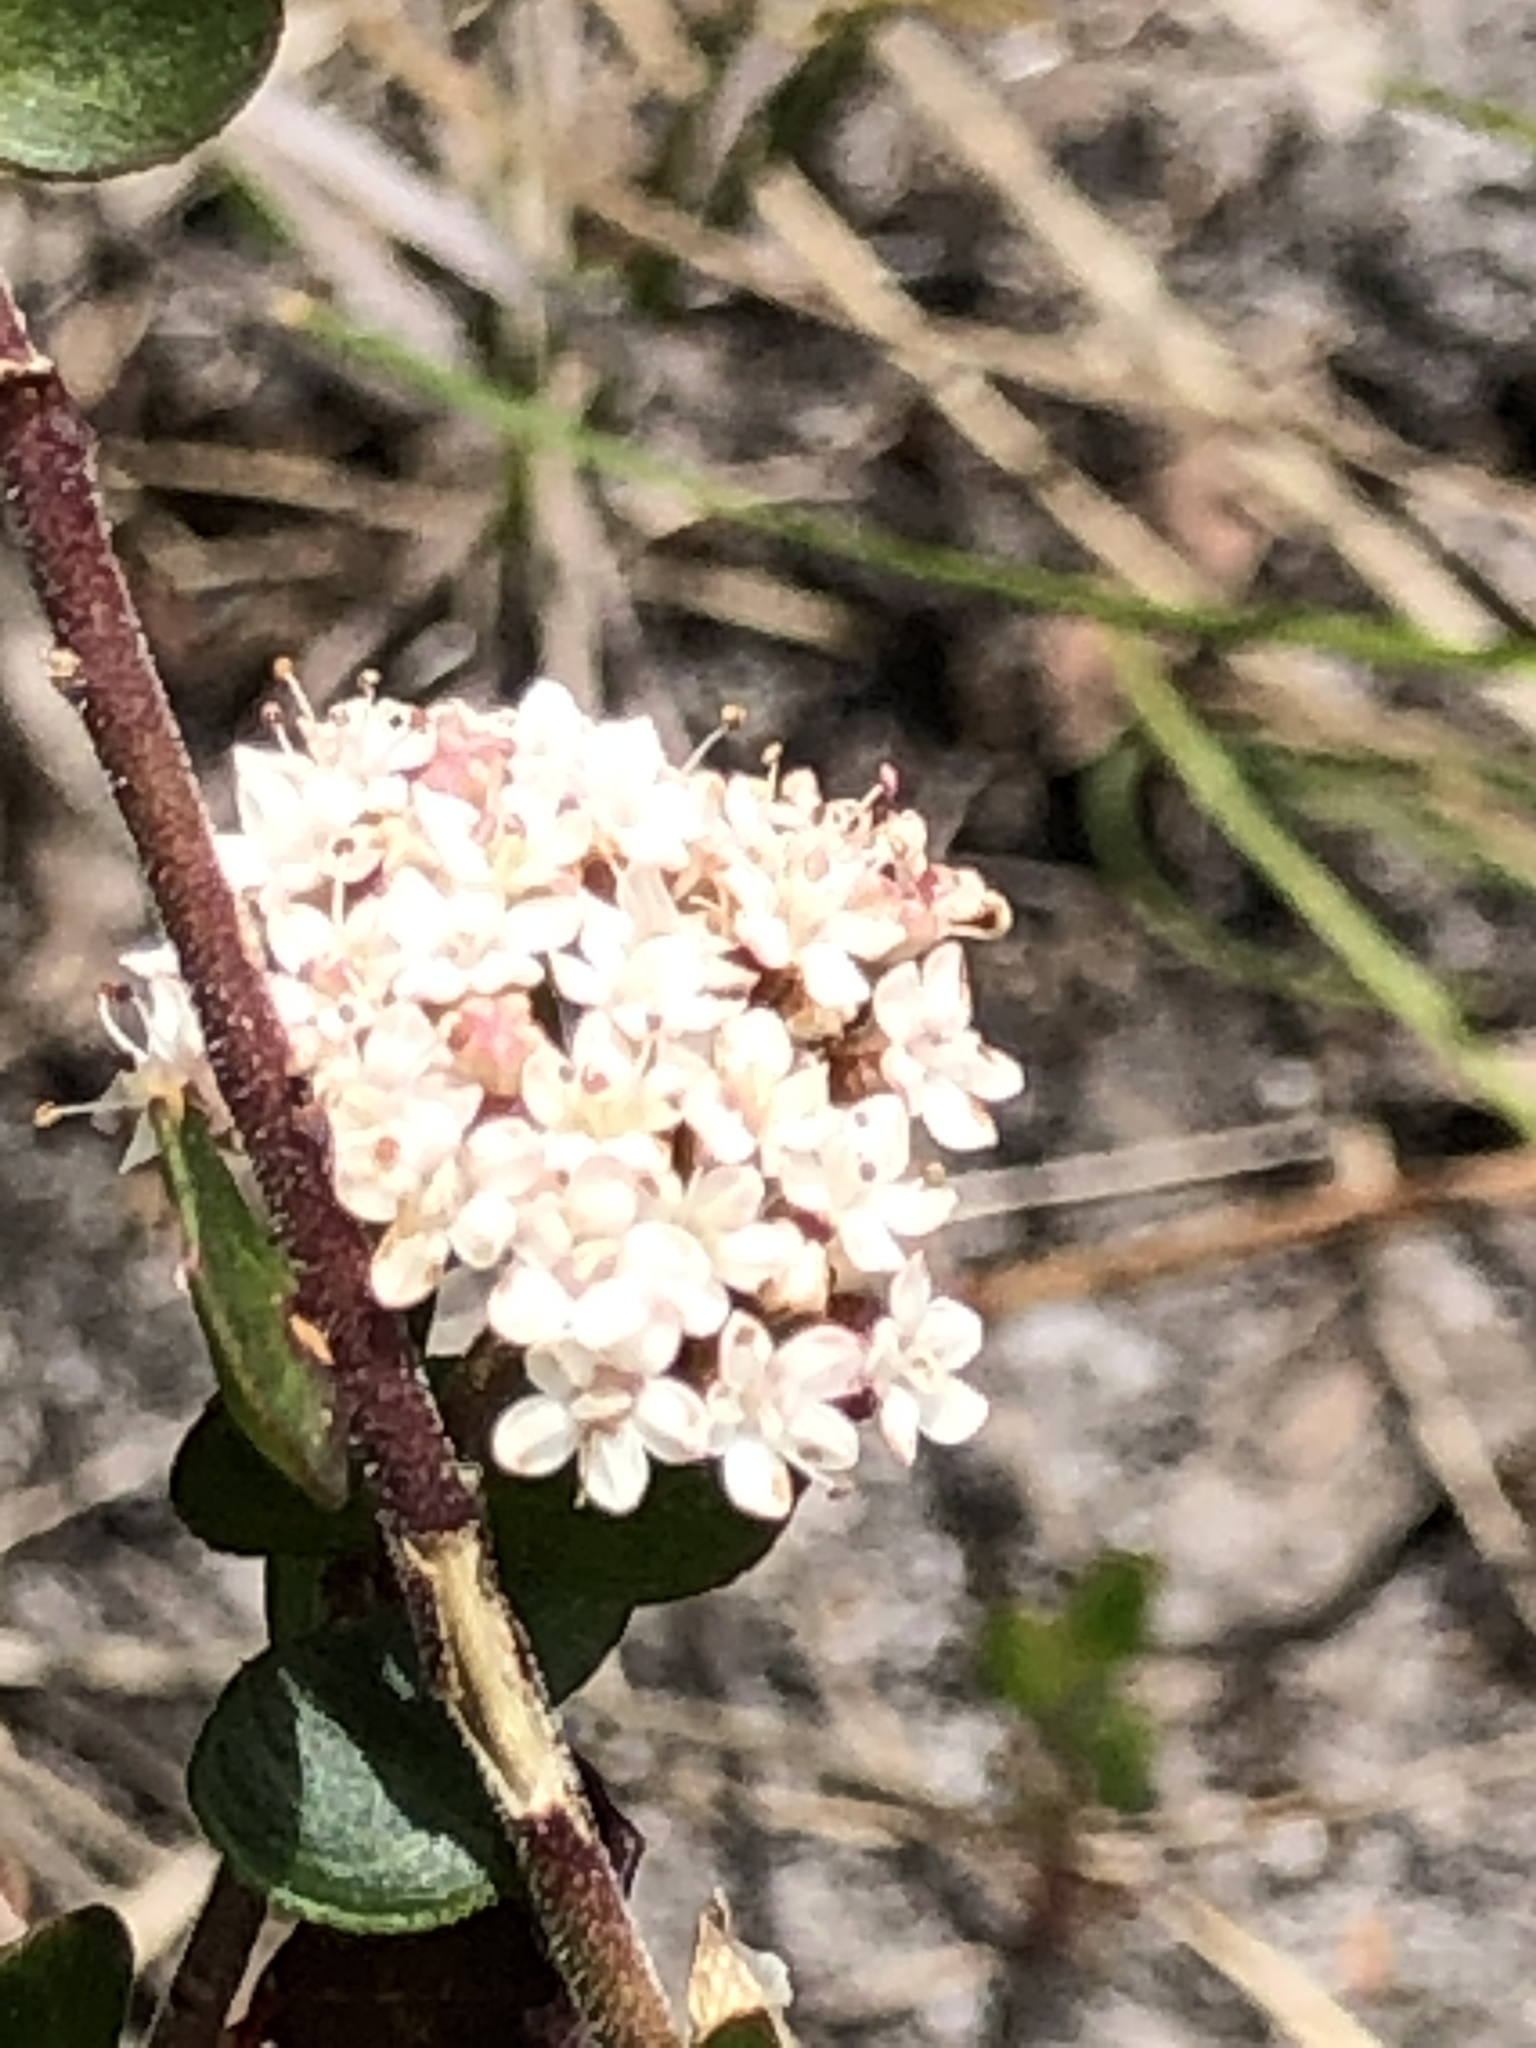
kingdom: Plantae
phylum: Tracheophyta
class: Magnoliopsida
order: Apiales
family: Apiaceae
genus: Platysace
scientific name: Platysace lanceolata
